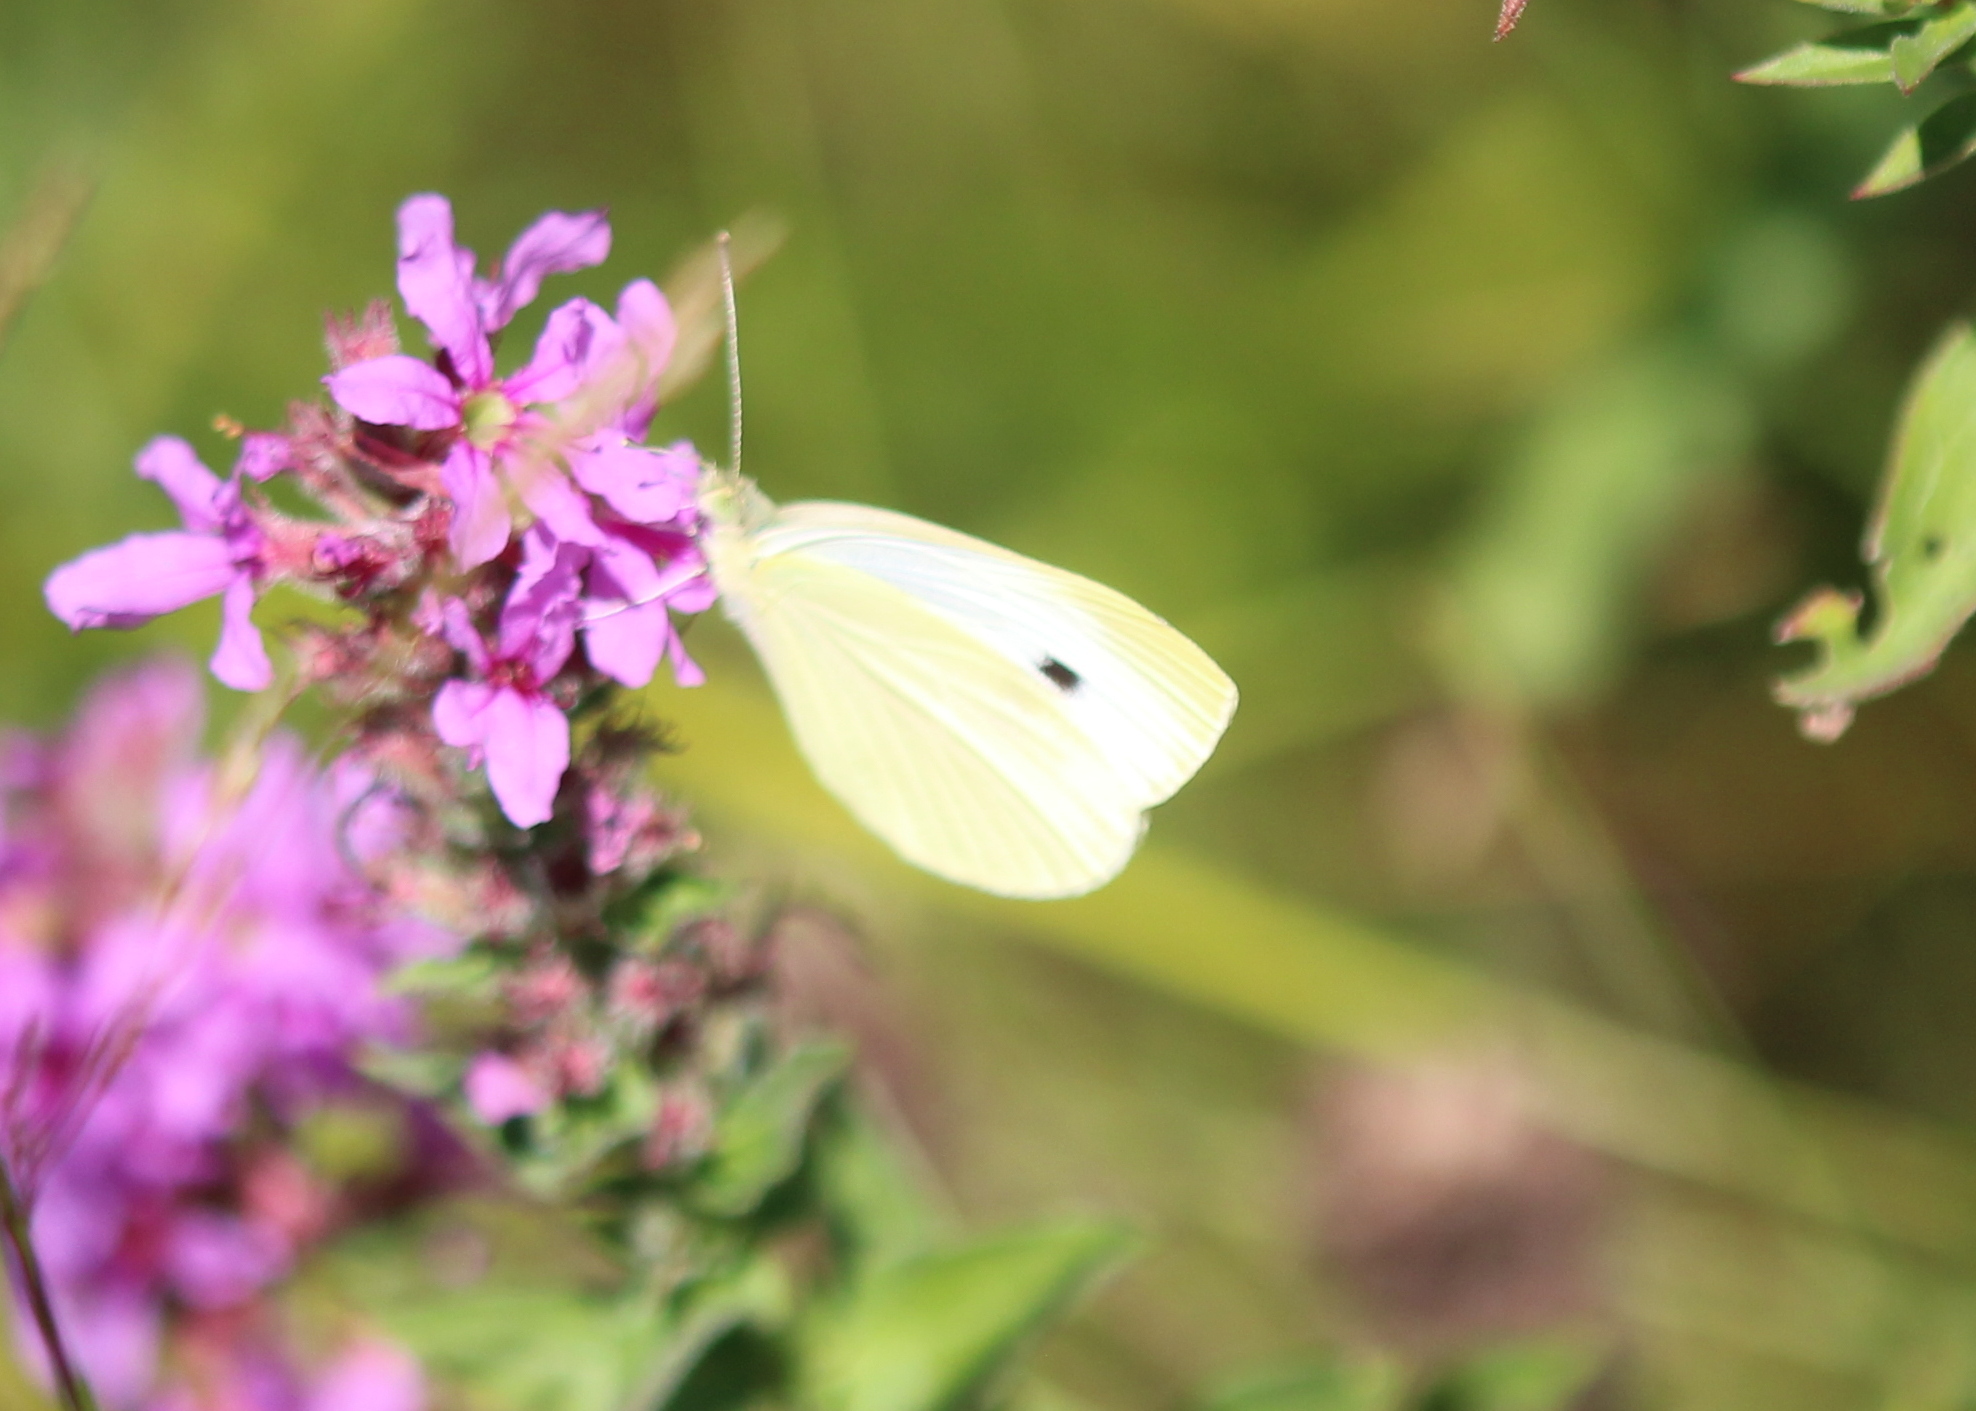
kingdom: Animalia
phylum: Arthropoda
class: Insecta
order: Lepidoptera
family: Pieridae
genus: Pieris
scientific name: Pieris rapae
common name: Small white
